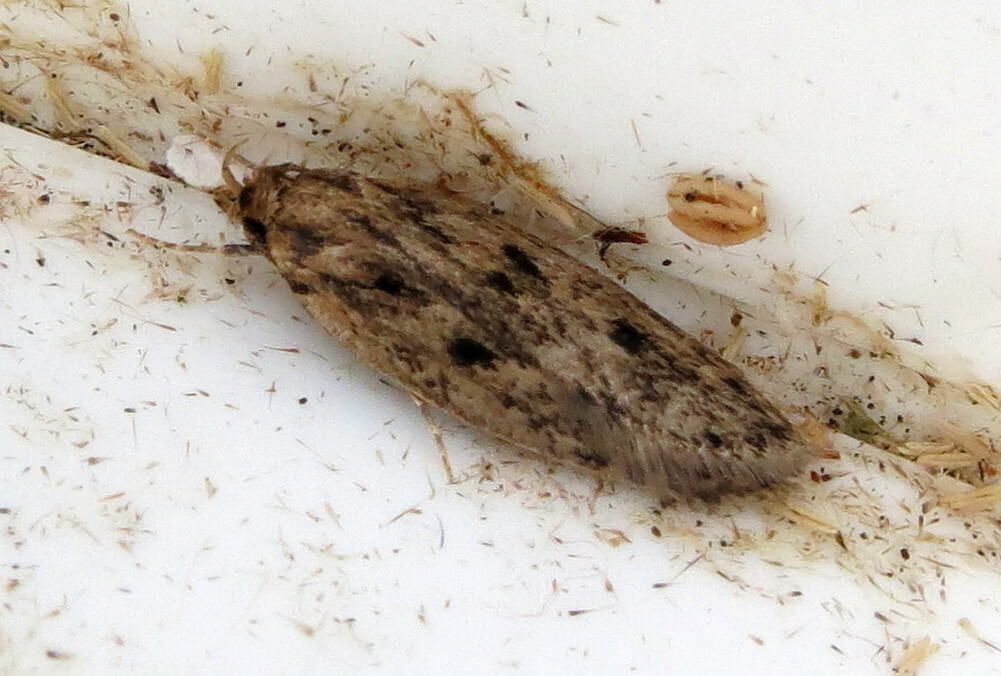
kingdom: Animalia
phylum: Arthropoda
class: Insecta
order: Lepidoptera
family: Oecophoridae
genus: Hofmannophila
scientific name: Hofmannophila pseudospretella
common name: Brown house moth
